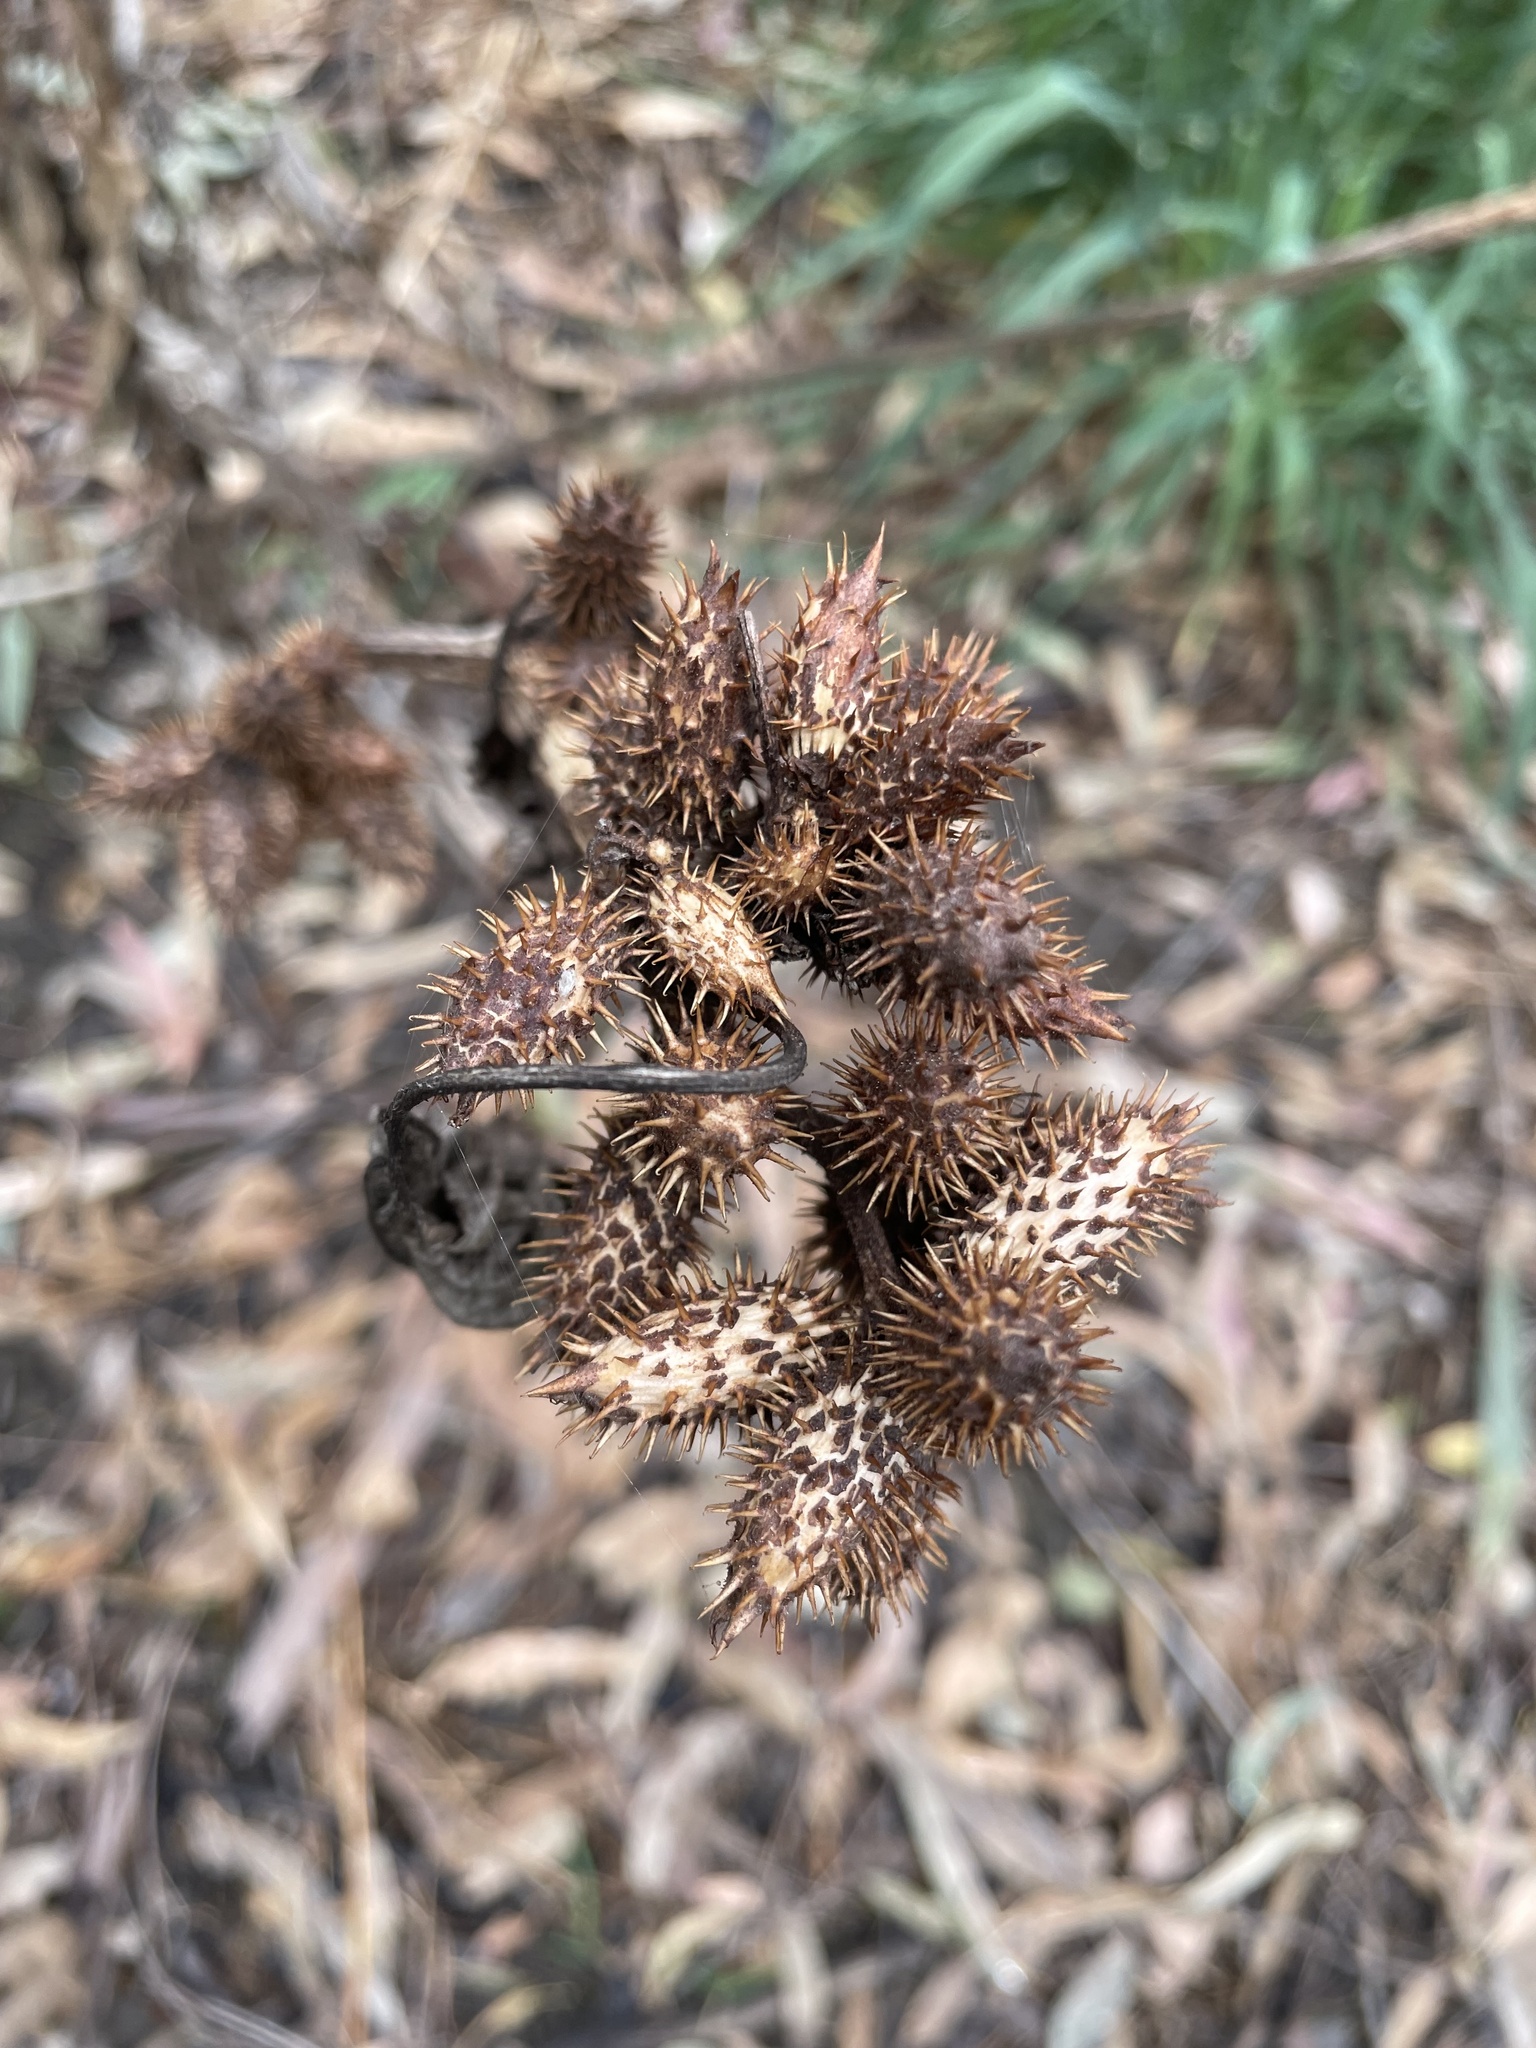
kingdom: Plantae
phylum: Tracheophyta
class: Magnoliopsida
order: Asterales
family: Asteraceae
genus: Xanthium
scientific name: Xanthium strumarium
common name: Rough cocklebur
